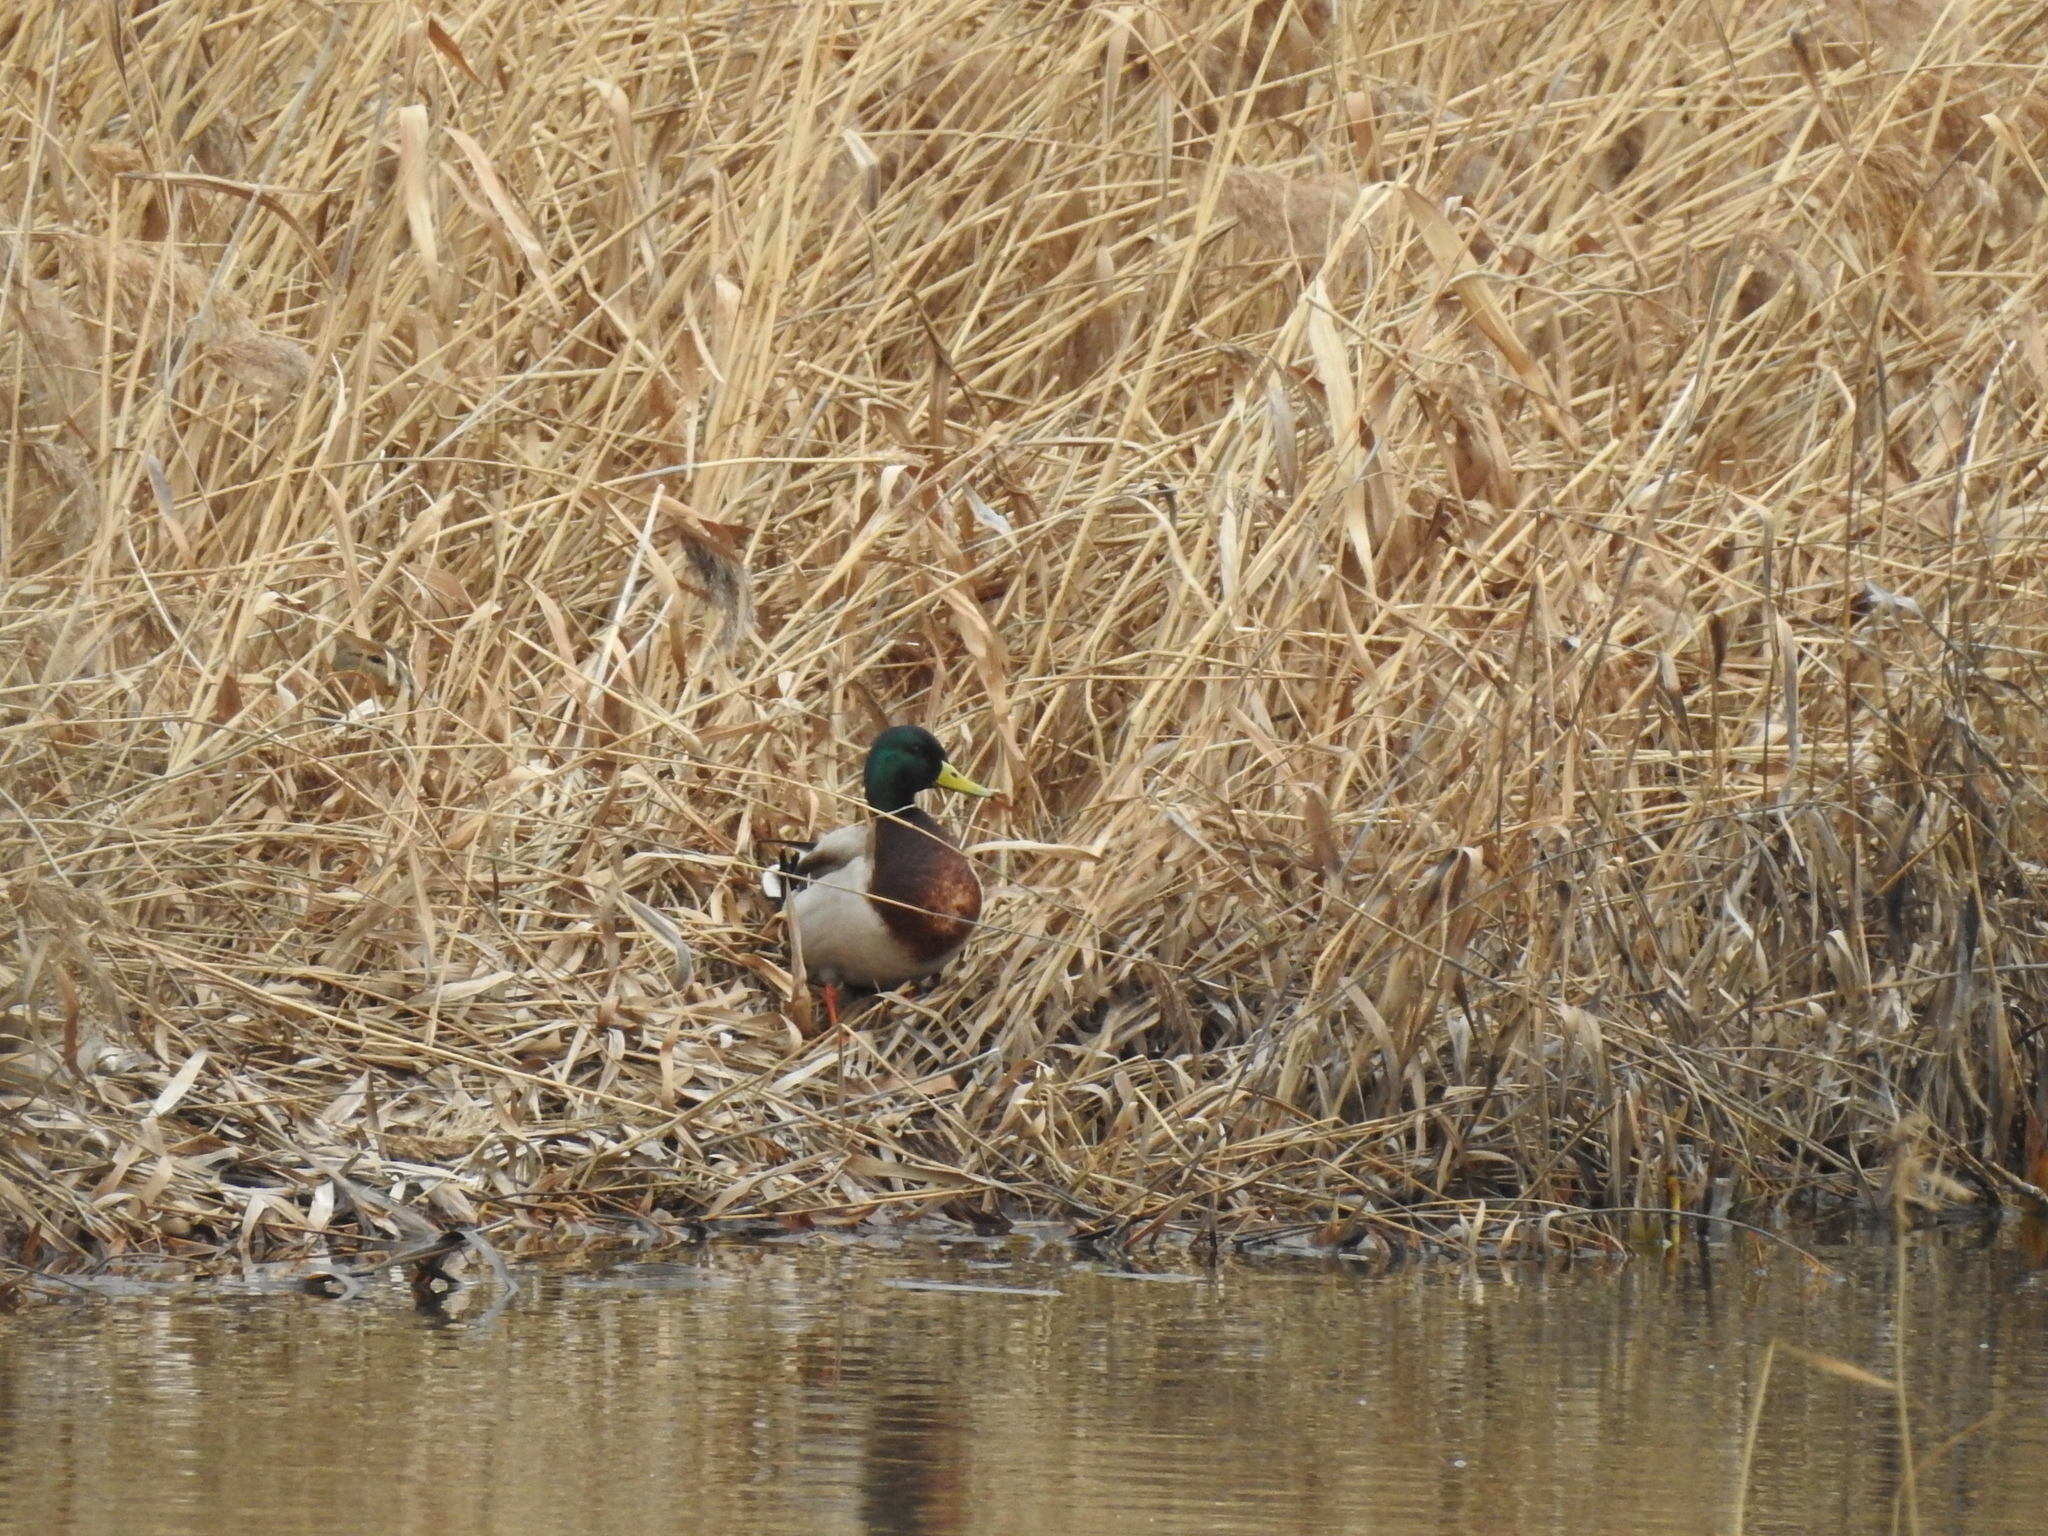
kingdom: Animalia
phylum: Chordata
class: Aves
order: Anseriformes
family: Anatidae
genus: Anas
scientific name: Anas platyrhynchos
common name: Mallard
